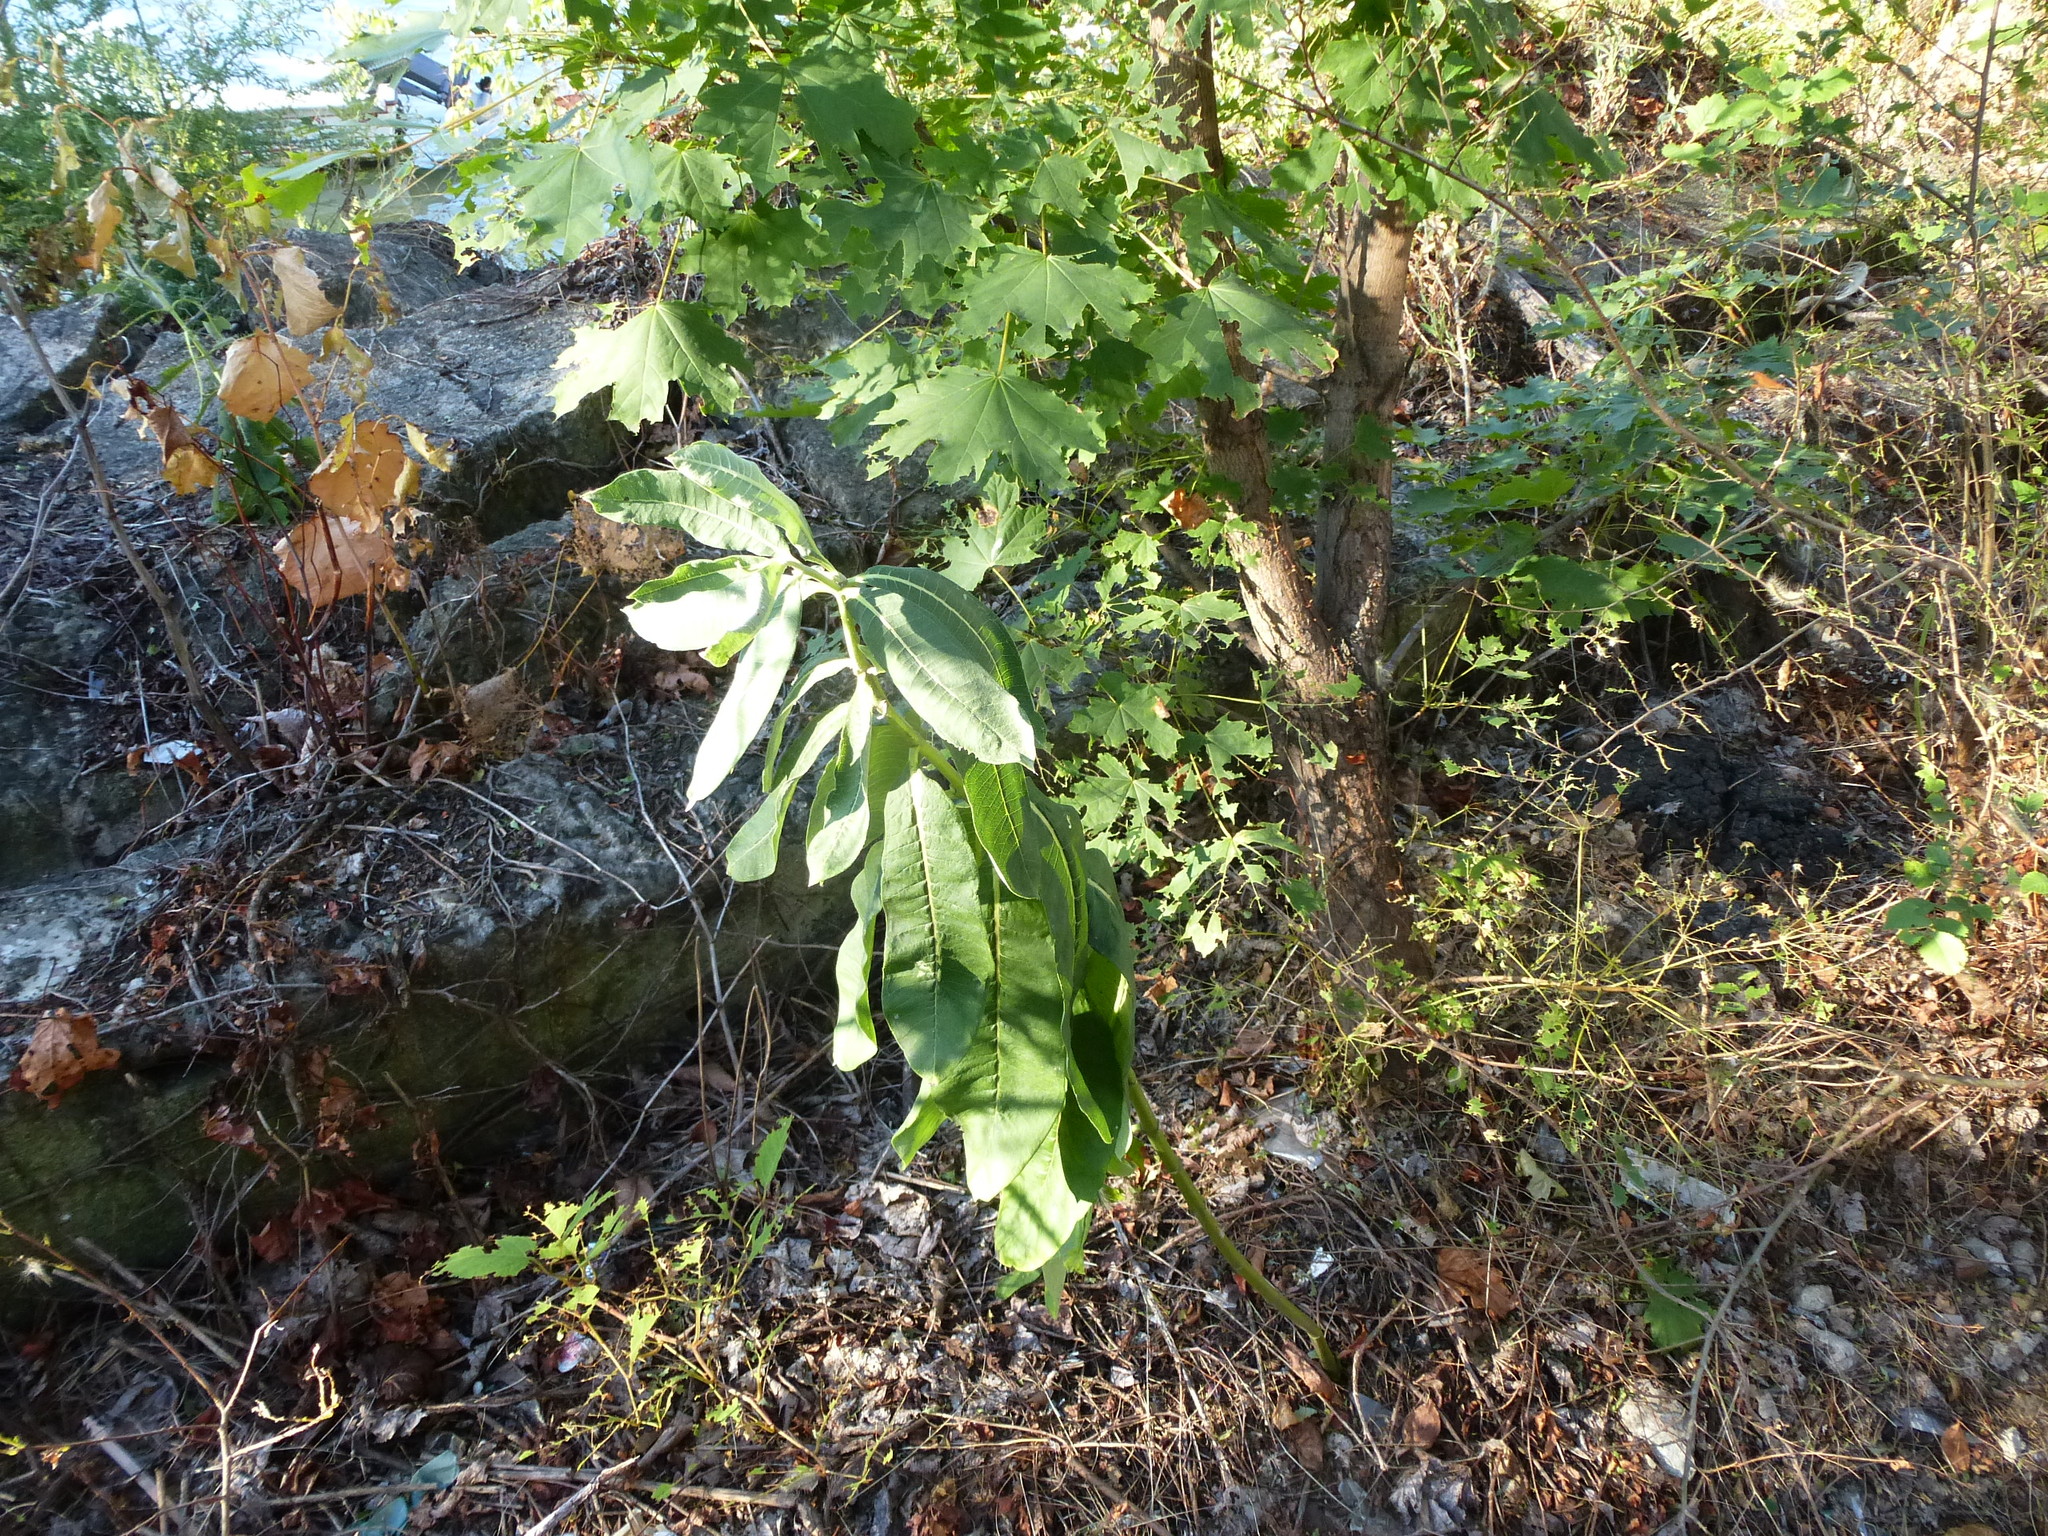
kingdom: Plantae
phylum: Tracheophyta
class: Magnoliopsida
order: Gentianales
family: Apocynaceae
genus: Asclepias
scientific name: Asclepias syriaca
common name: Common milkweed
